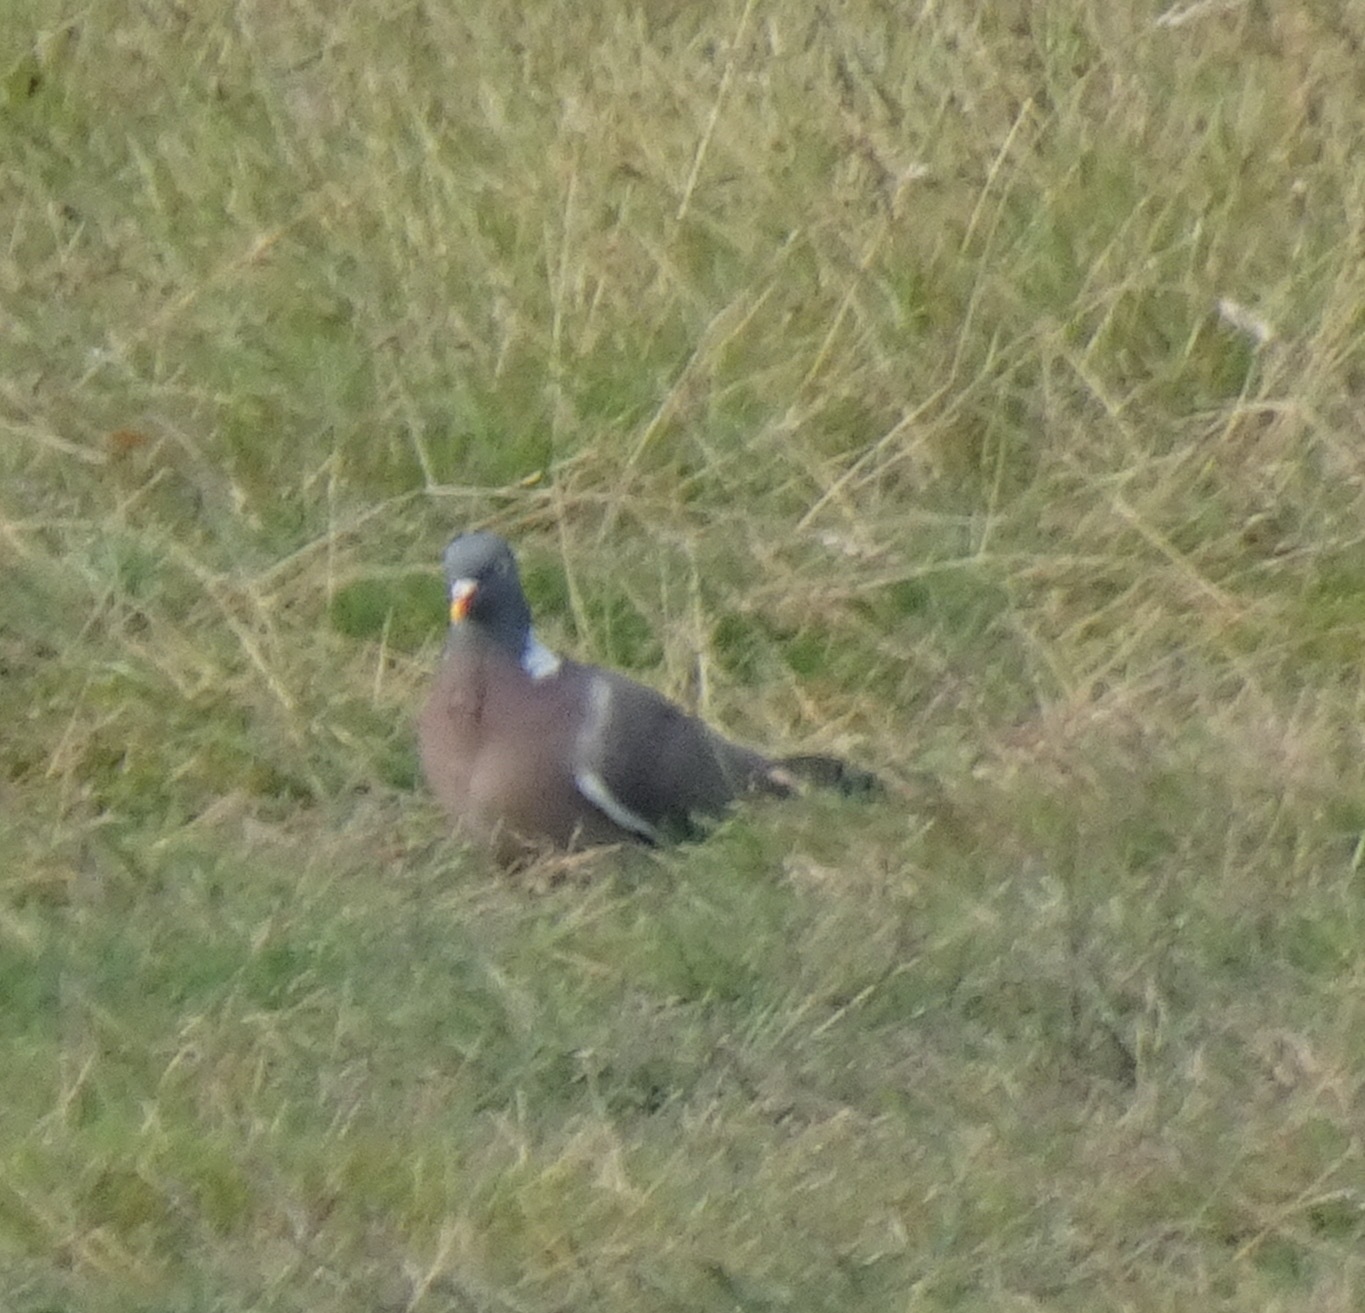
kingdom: Animalia
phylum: Chordata
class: Aves
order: Columbiformes
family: Columbidae
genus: Columba
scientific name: Columba palumbus
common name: Common wood pigeon
